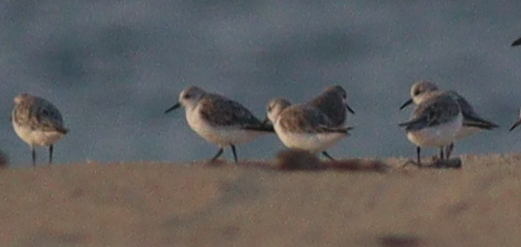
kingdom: Animalia
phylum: Chordata
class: Aves
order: Charadriiformes
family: Scolopacidae
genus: Calidris
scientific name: Calidris alba
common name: Sanderling
